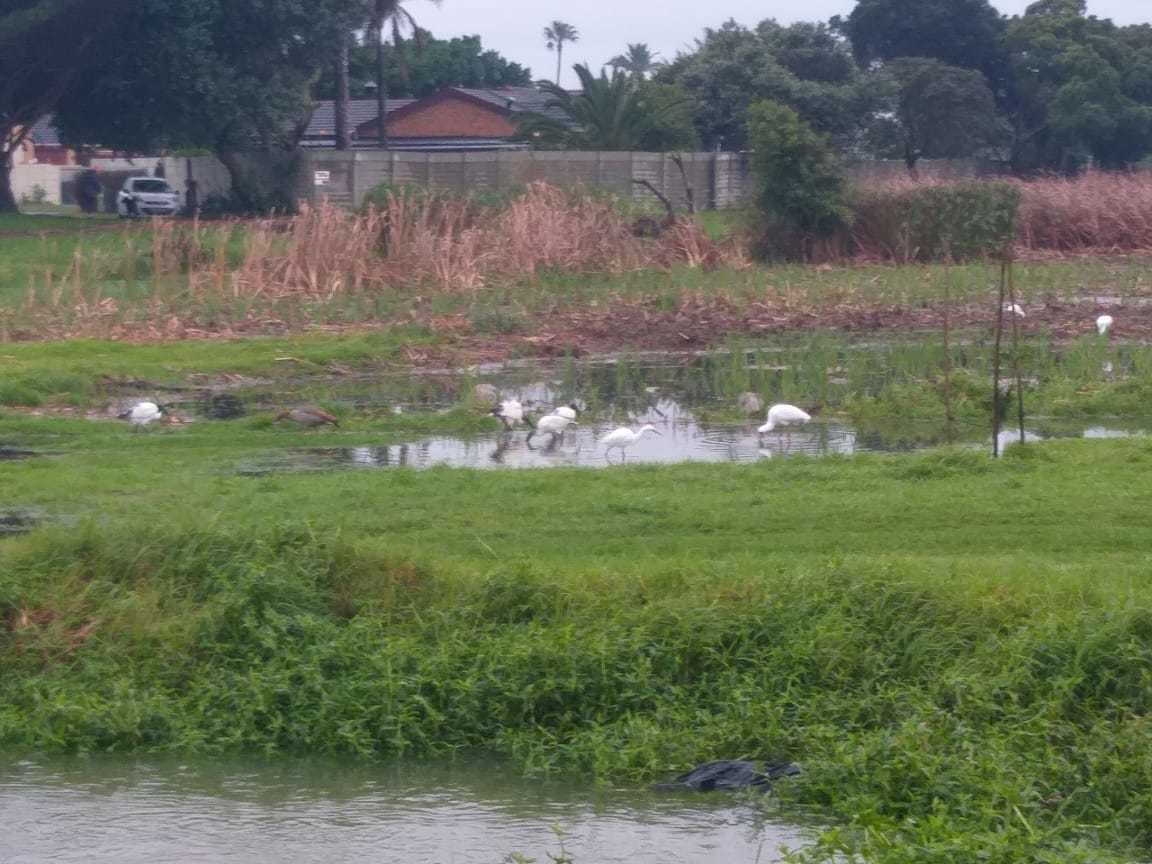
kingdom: Animalia
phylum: Chordata
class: Aves
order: Pelecaniformes
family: Ardeidae
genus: Egretta
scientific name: Egretta garzetta
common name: Little egret
